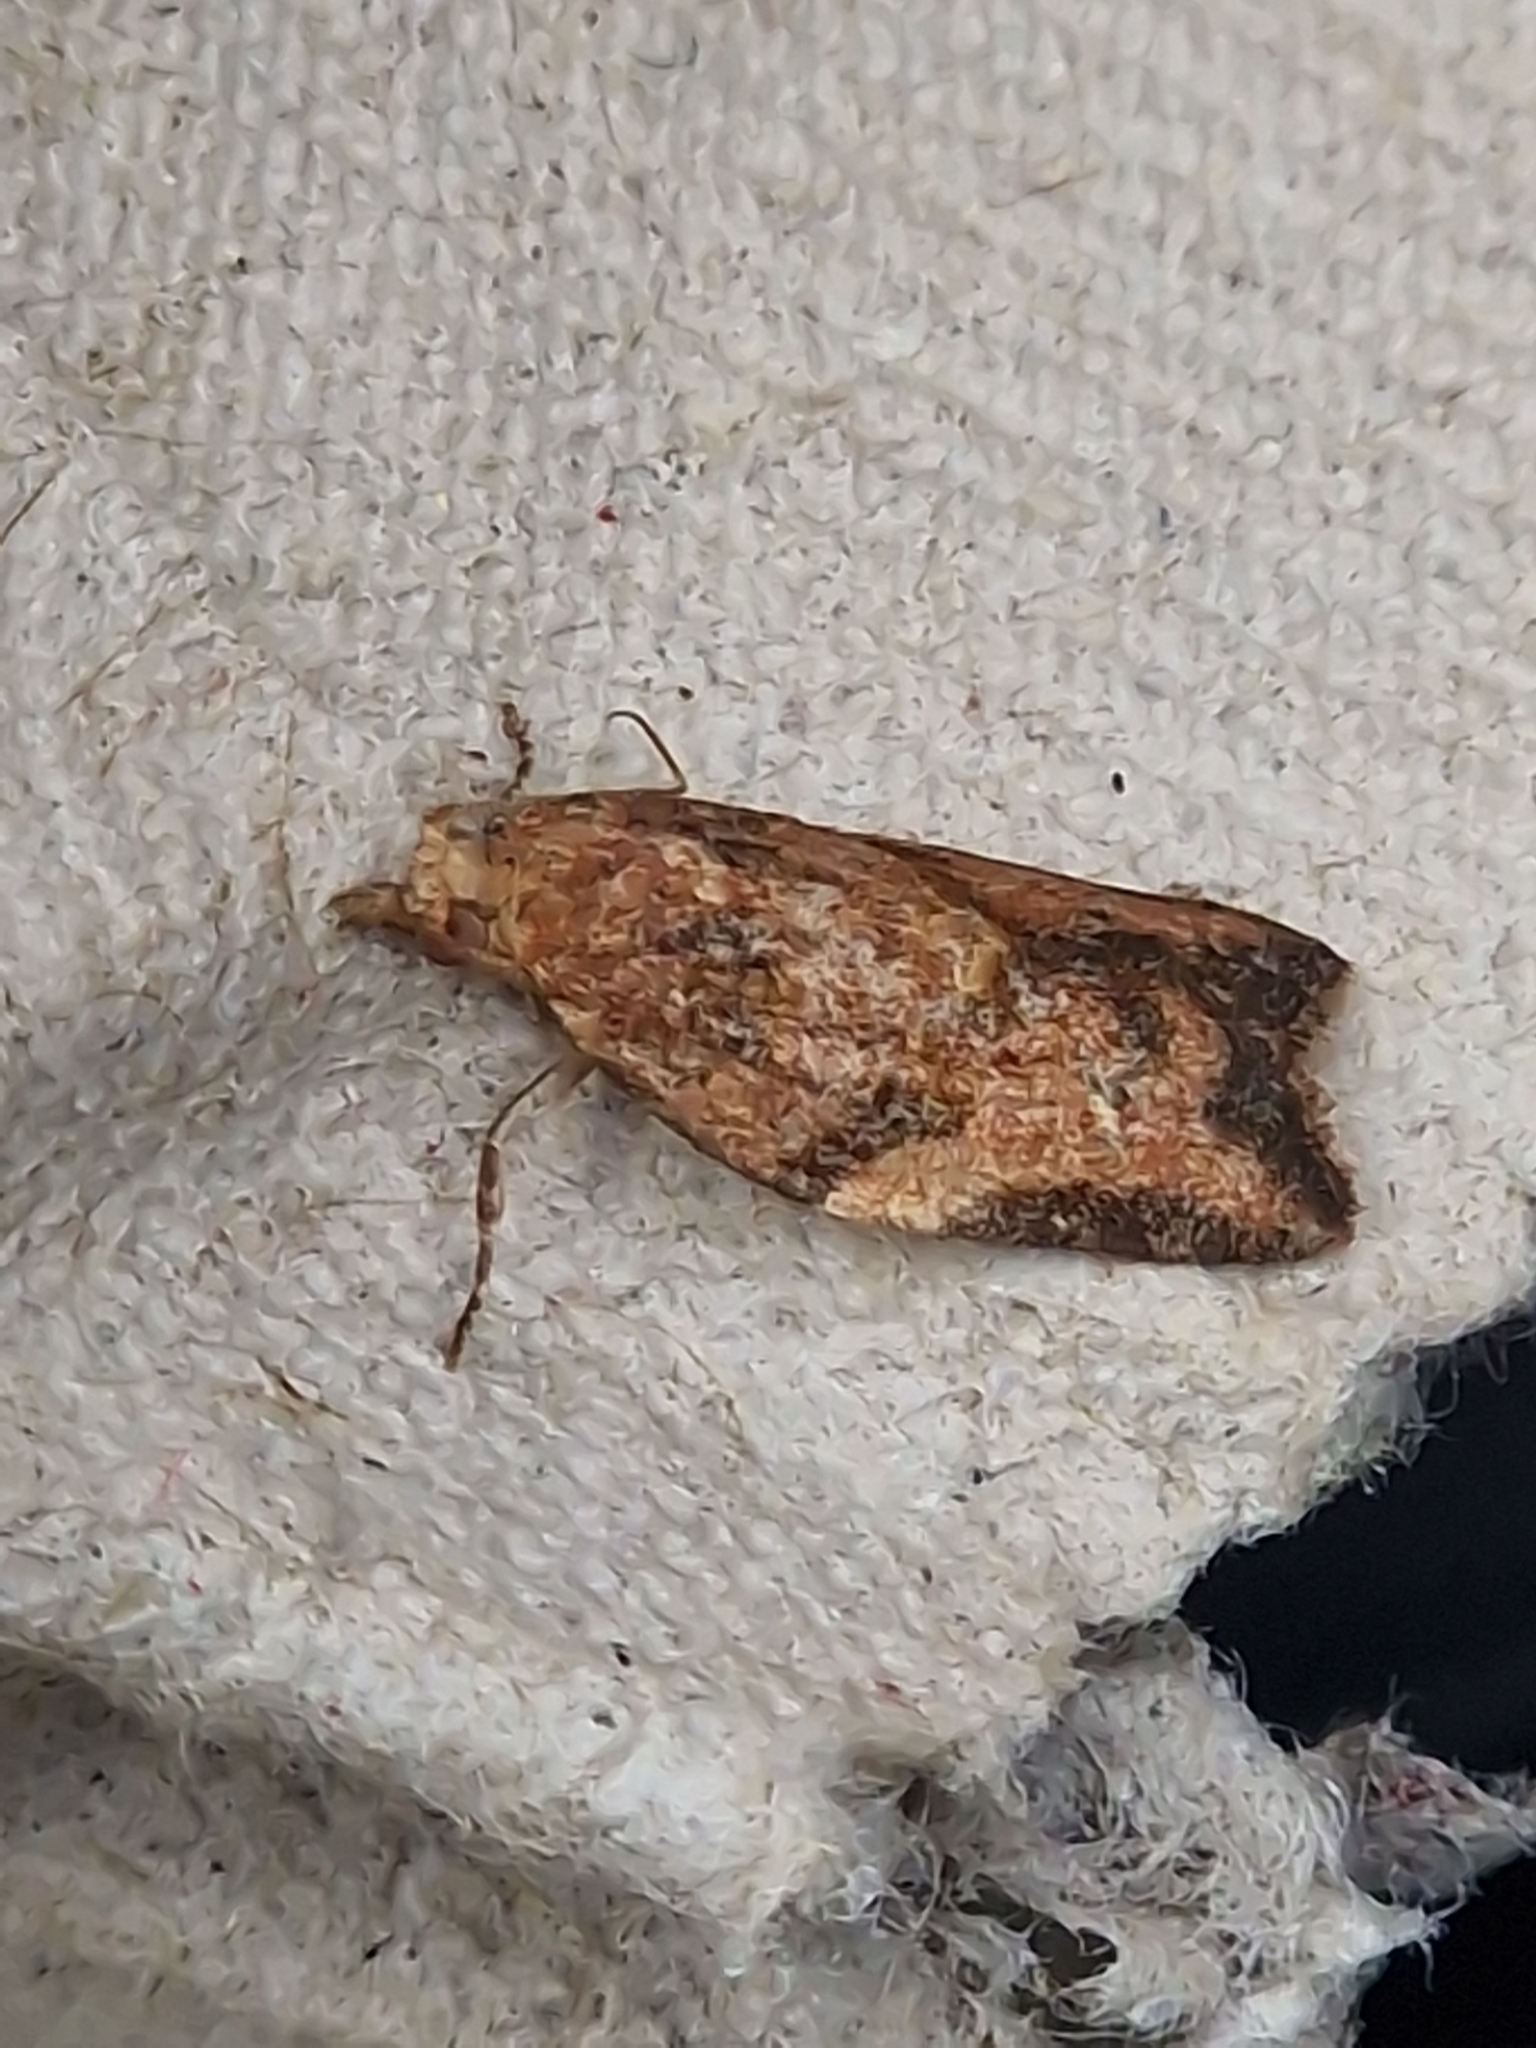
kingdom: Animalia
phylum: Arthropoda
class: Insecta
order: Lepidoptera
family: Tortricidae
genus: Epiphyas
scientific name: Epiphyas postvittana
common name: Light brown apple moth
